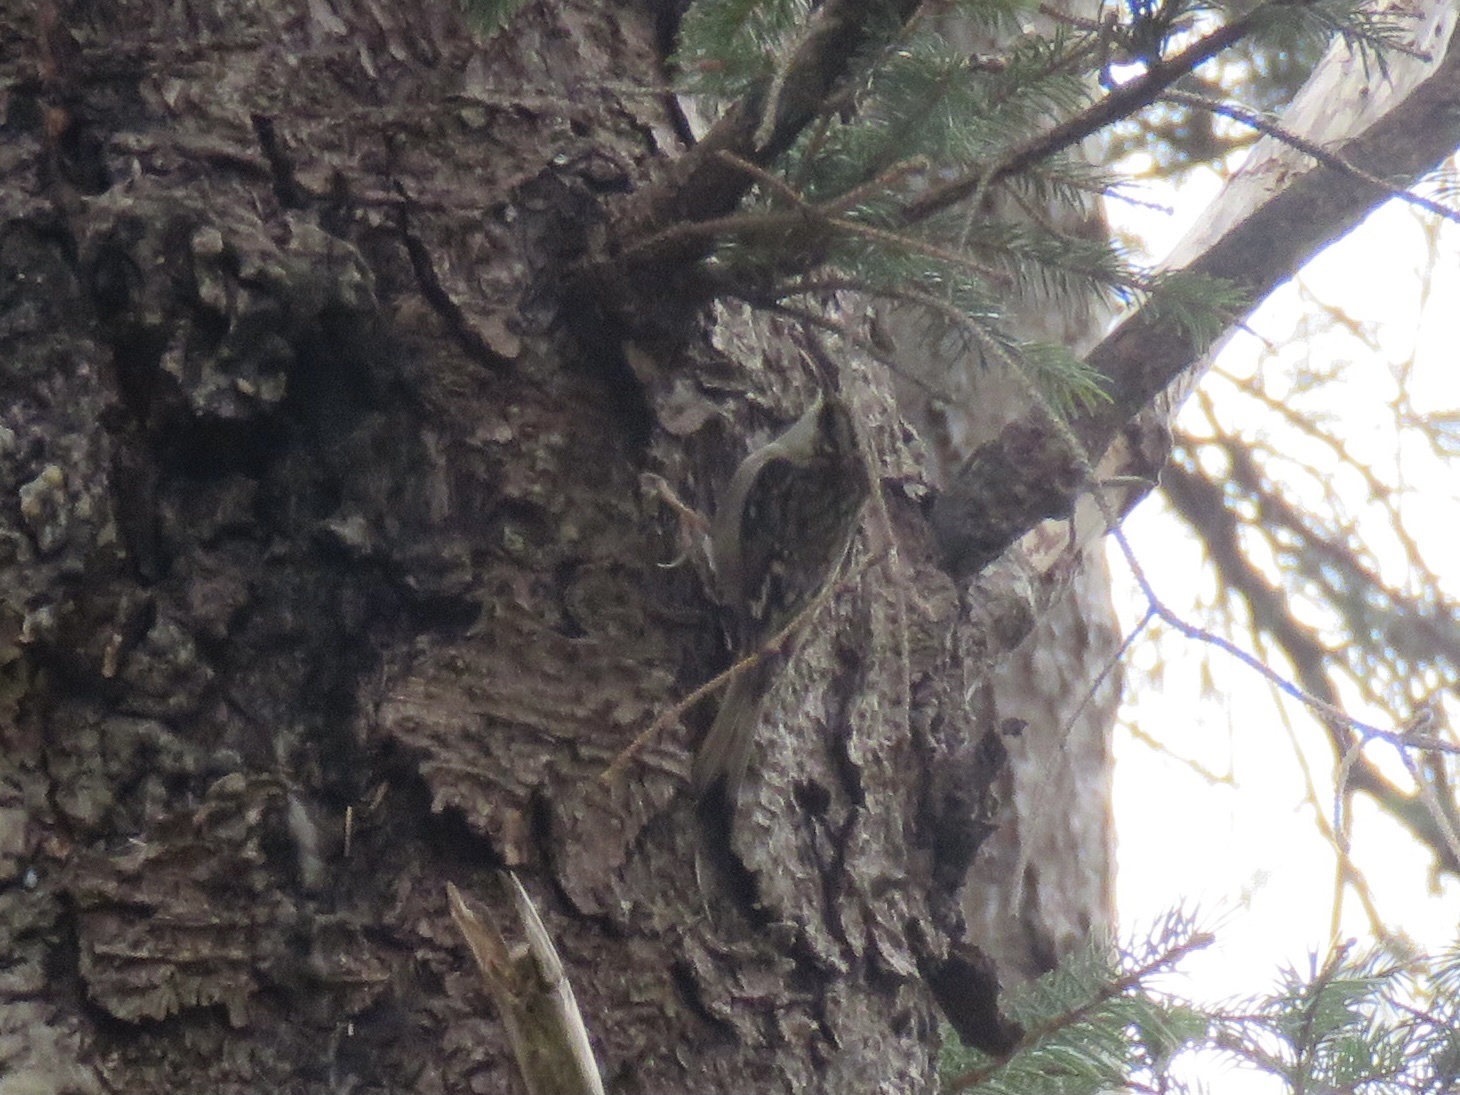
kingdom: Animalia
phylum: Chordata
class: Aves
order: Passeriformes
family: Certhiidae
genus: Certhia
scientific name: Certhia americana
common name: Brown creeper
